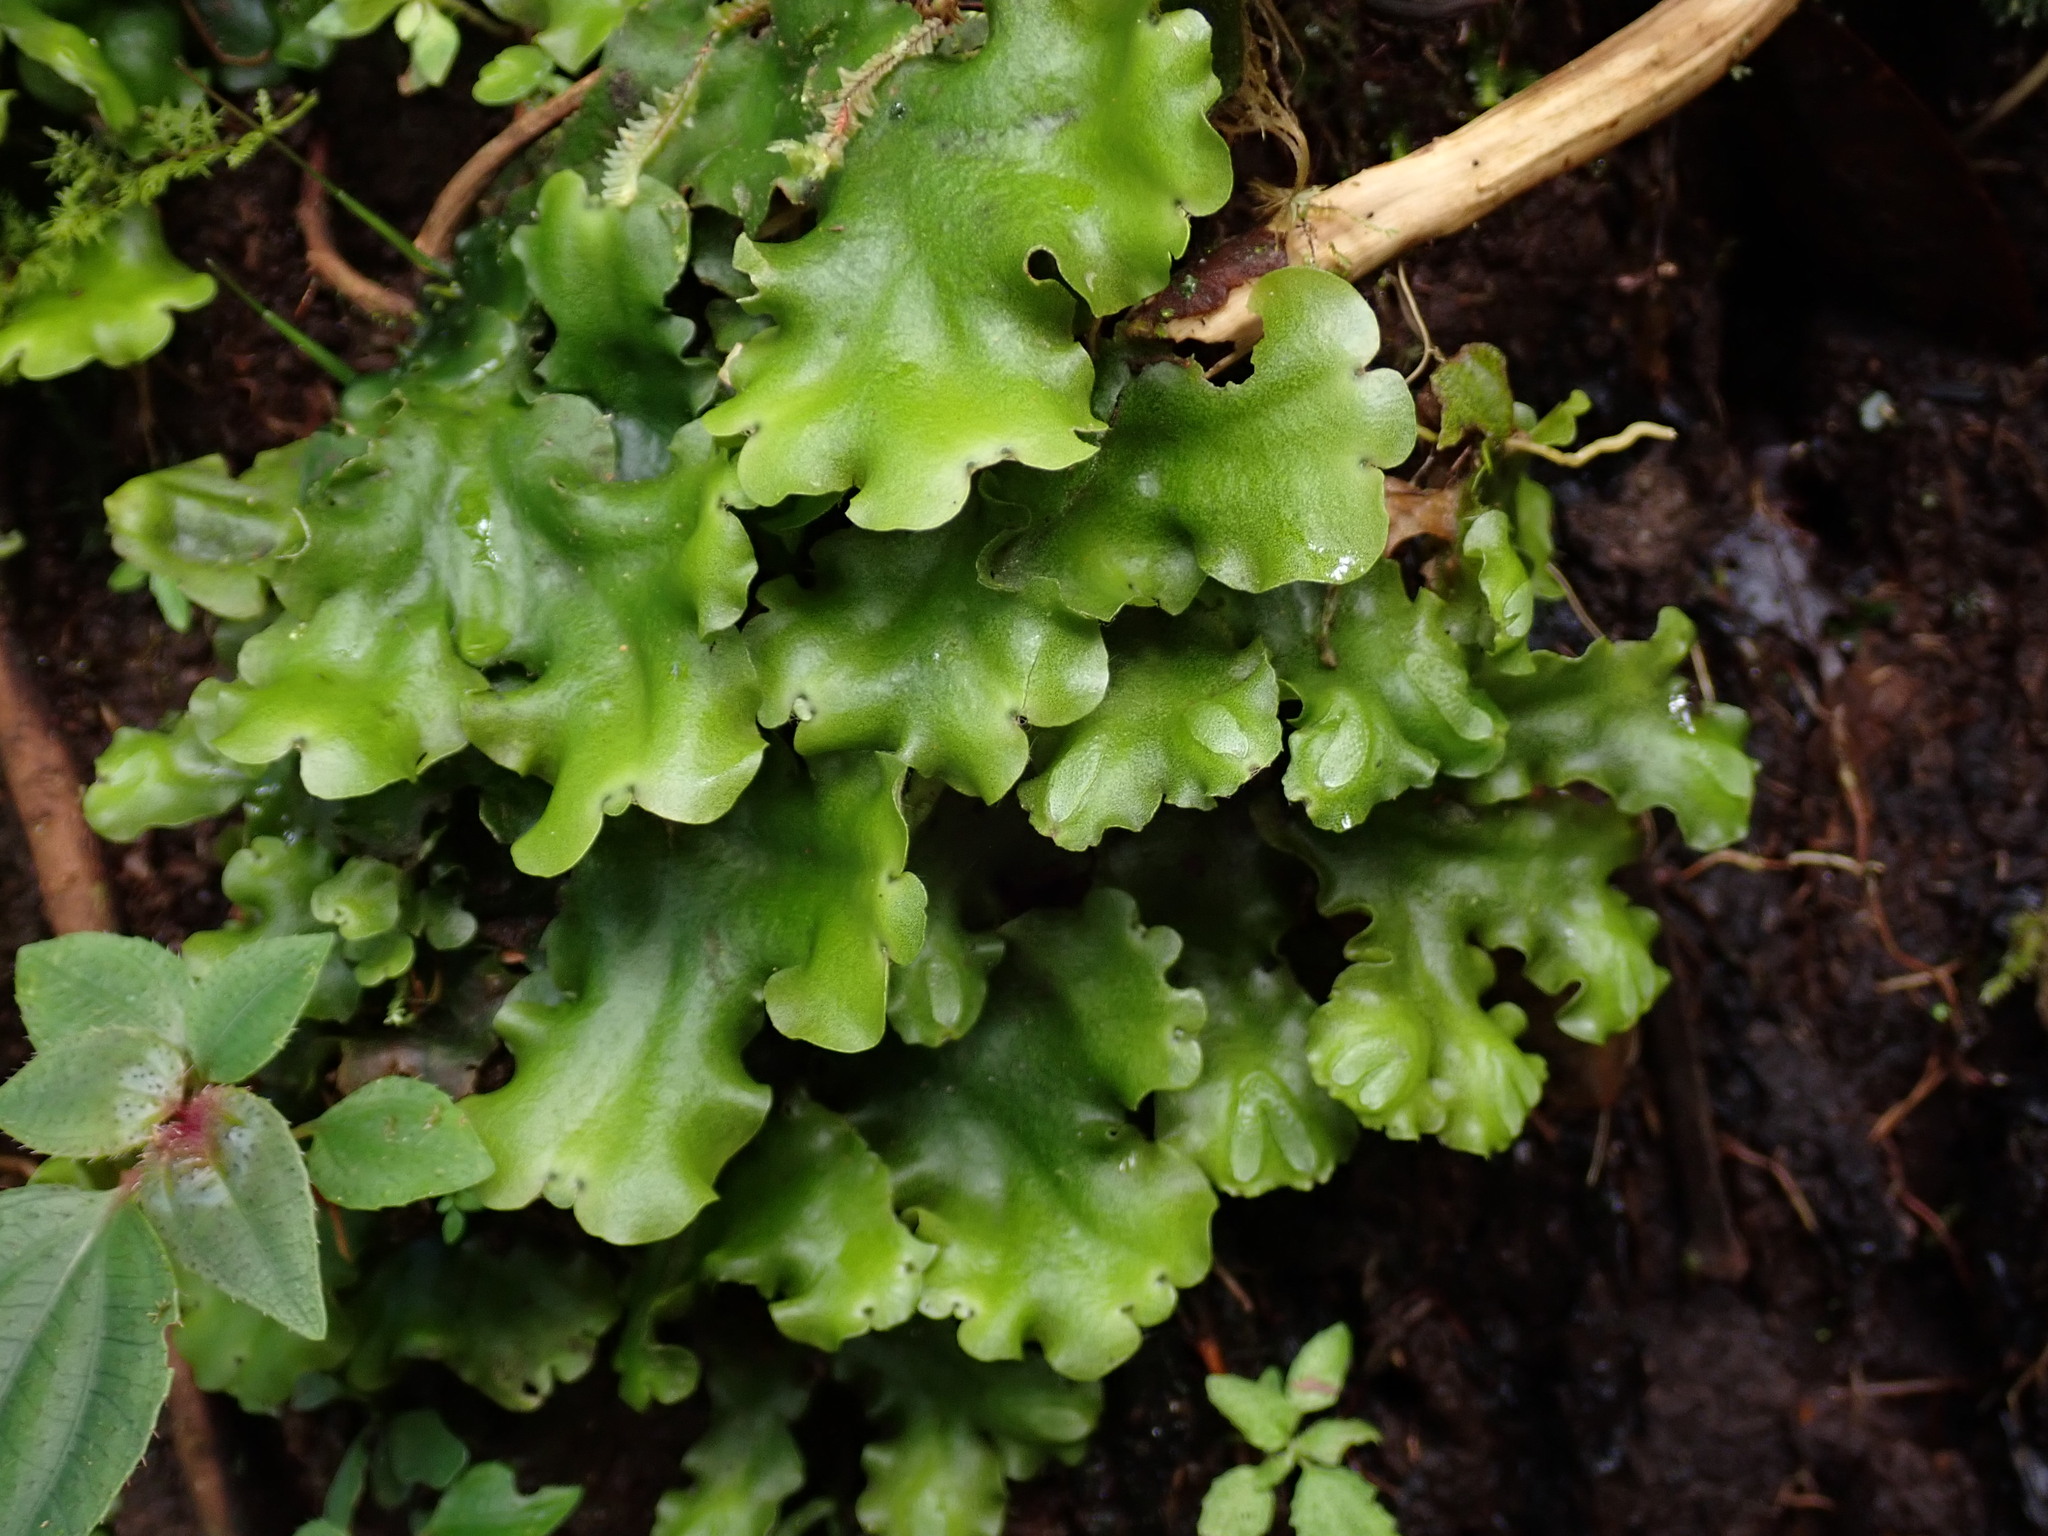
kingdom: Plantae
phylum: Marchantiophyta
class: Marchantiopsida
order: Marchantiales
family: Monocleaceae
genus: Monoclea
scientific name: Monoclea gottschei
